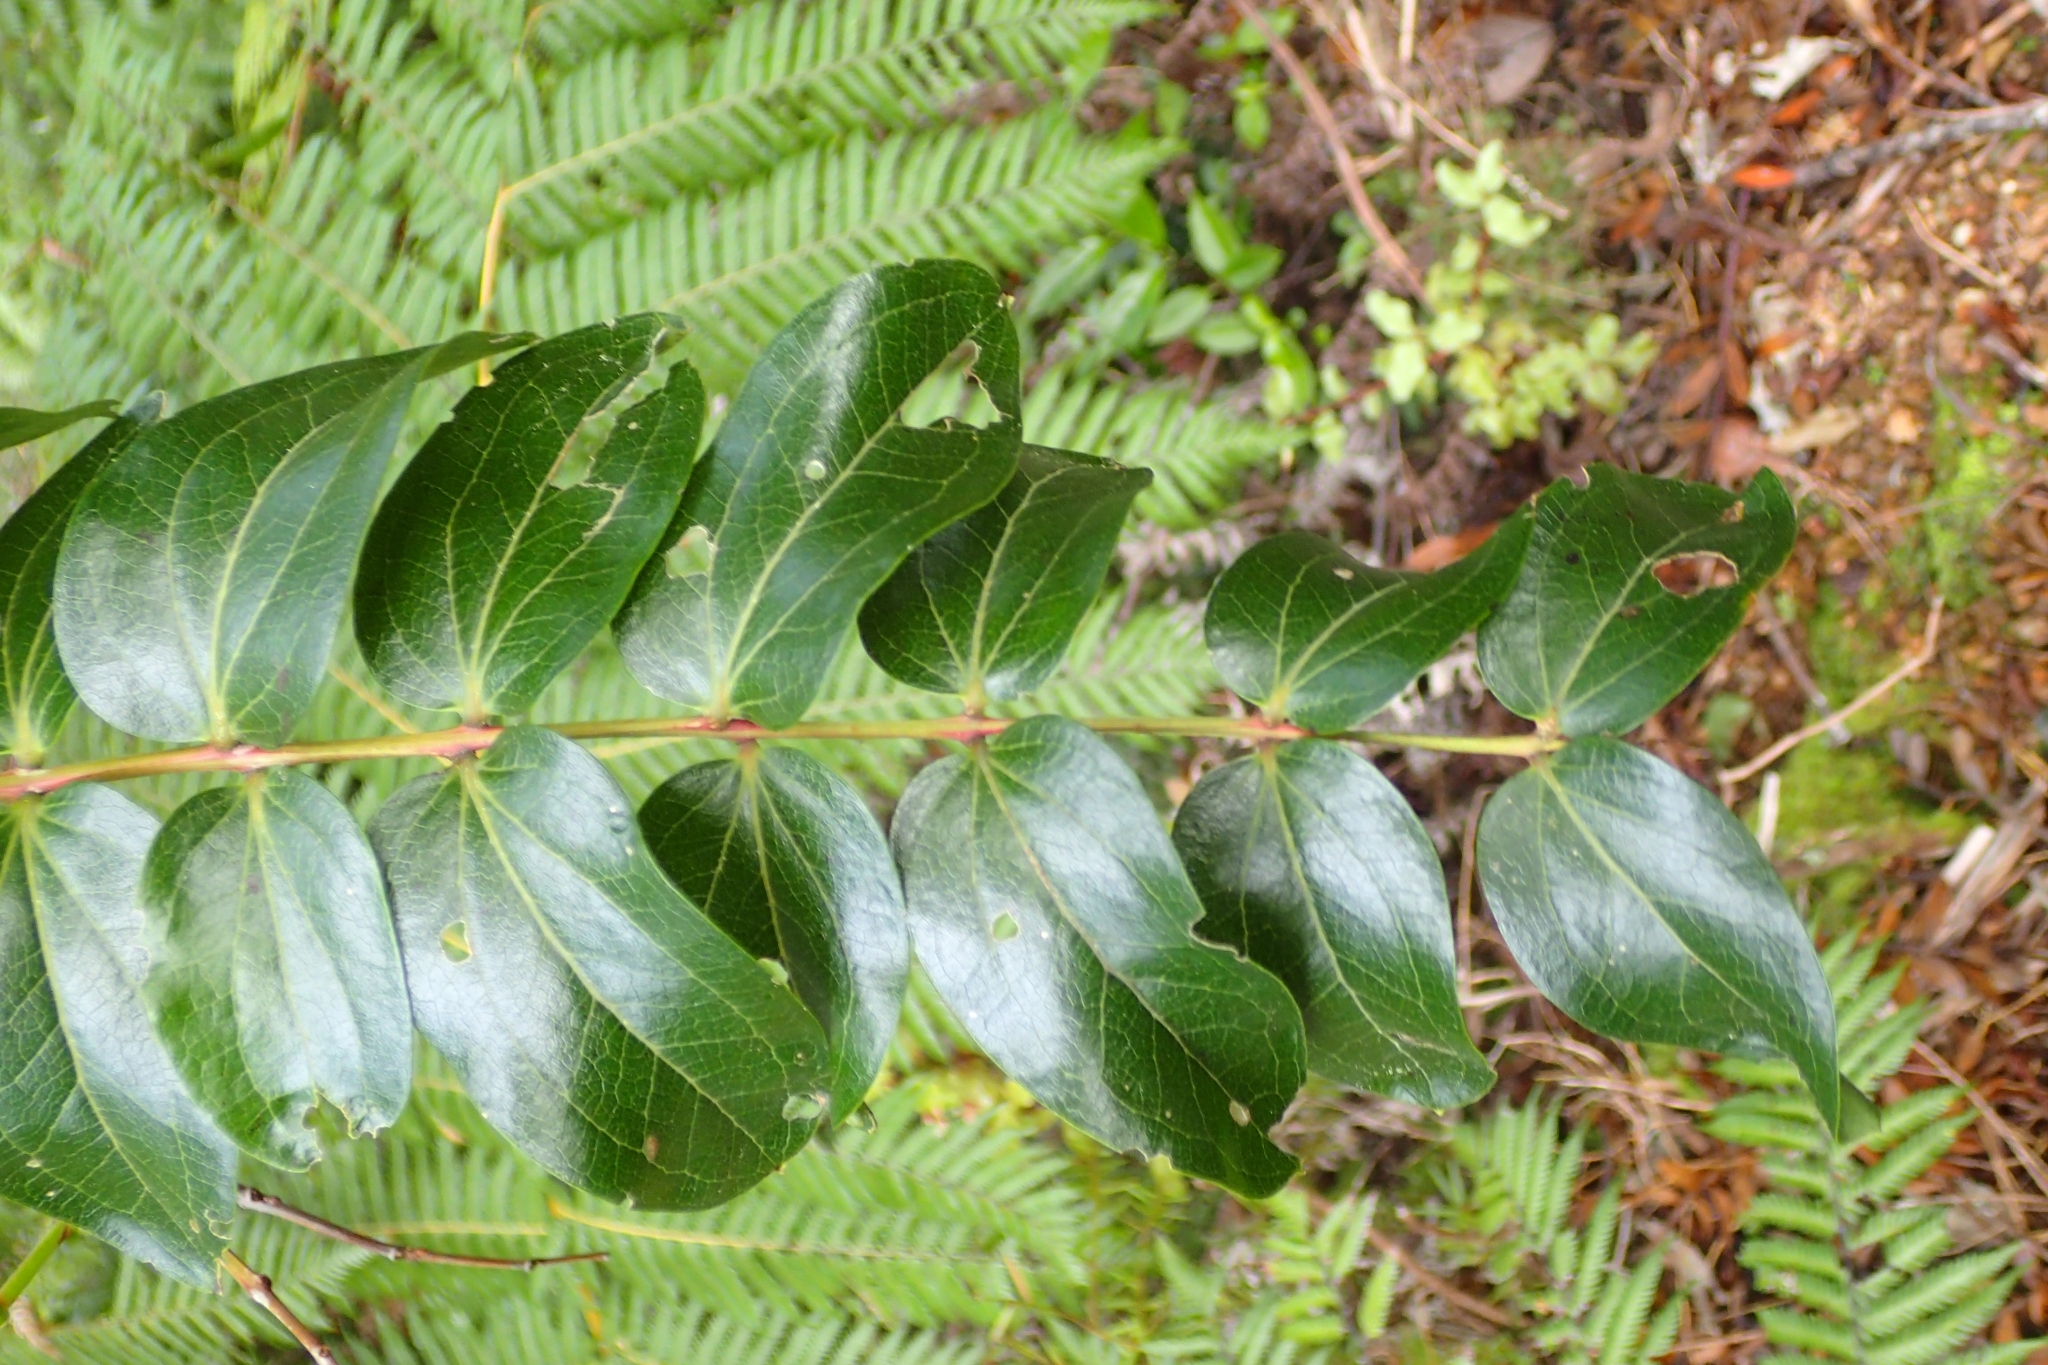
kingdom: Plantae
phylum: Tracheophyta
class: Magnoliopsida
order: Cucurbitales
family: Coriariaceae
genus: Coriaria
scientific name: Coriaria arborea
